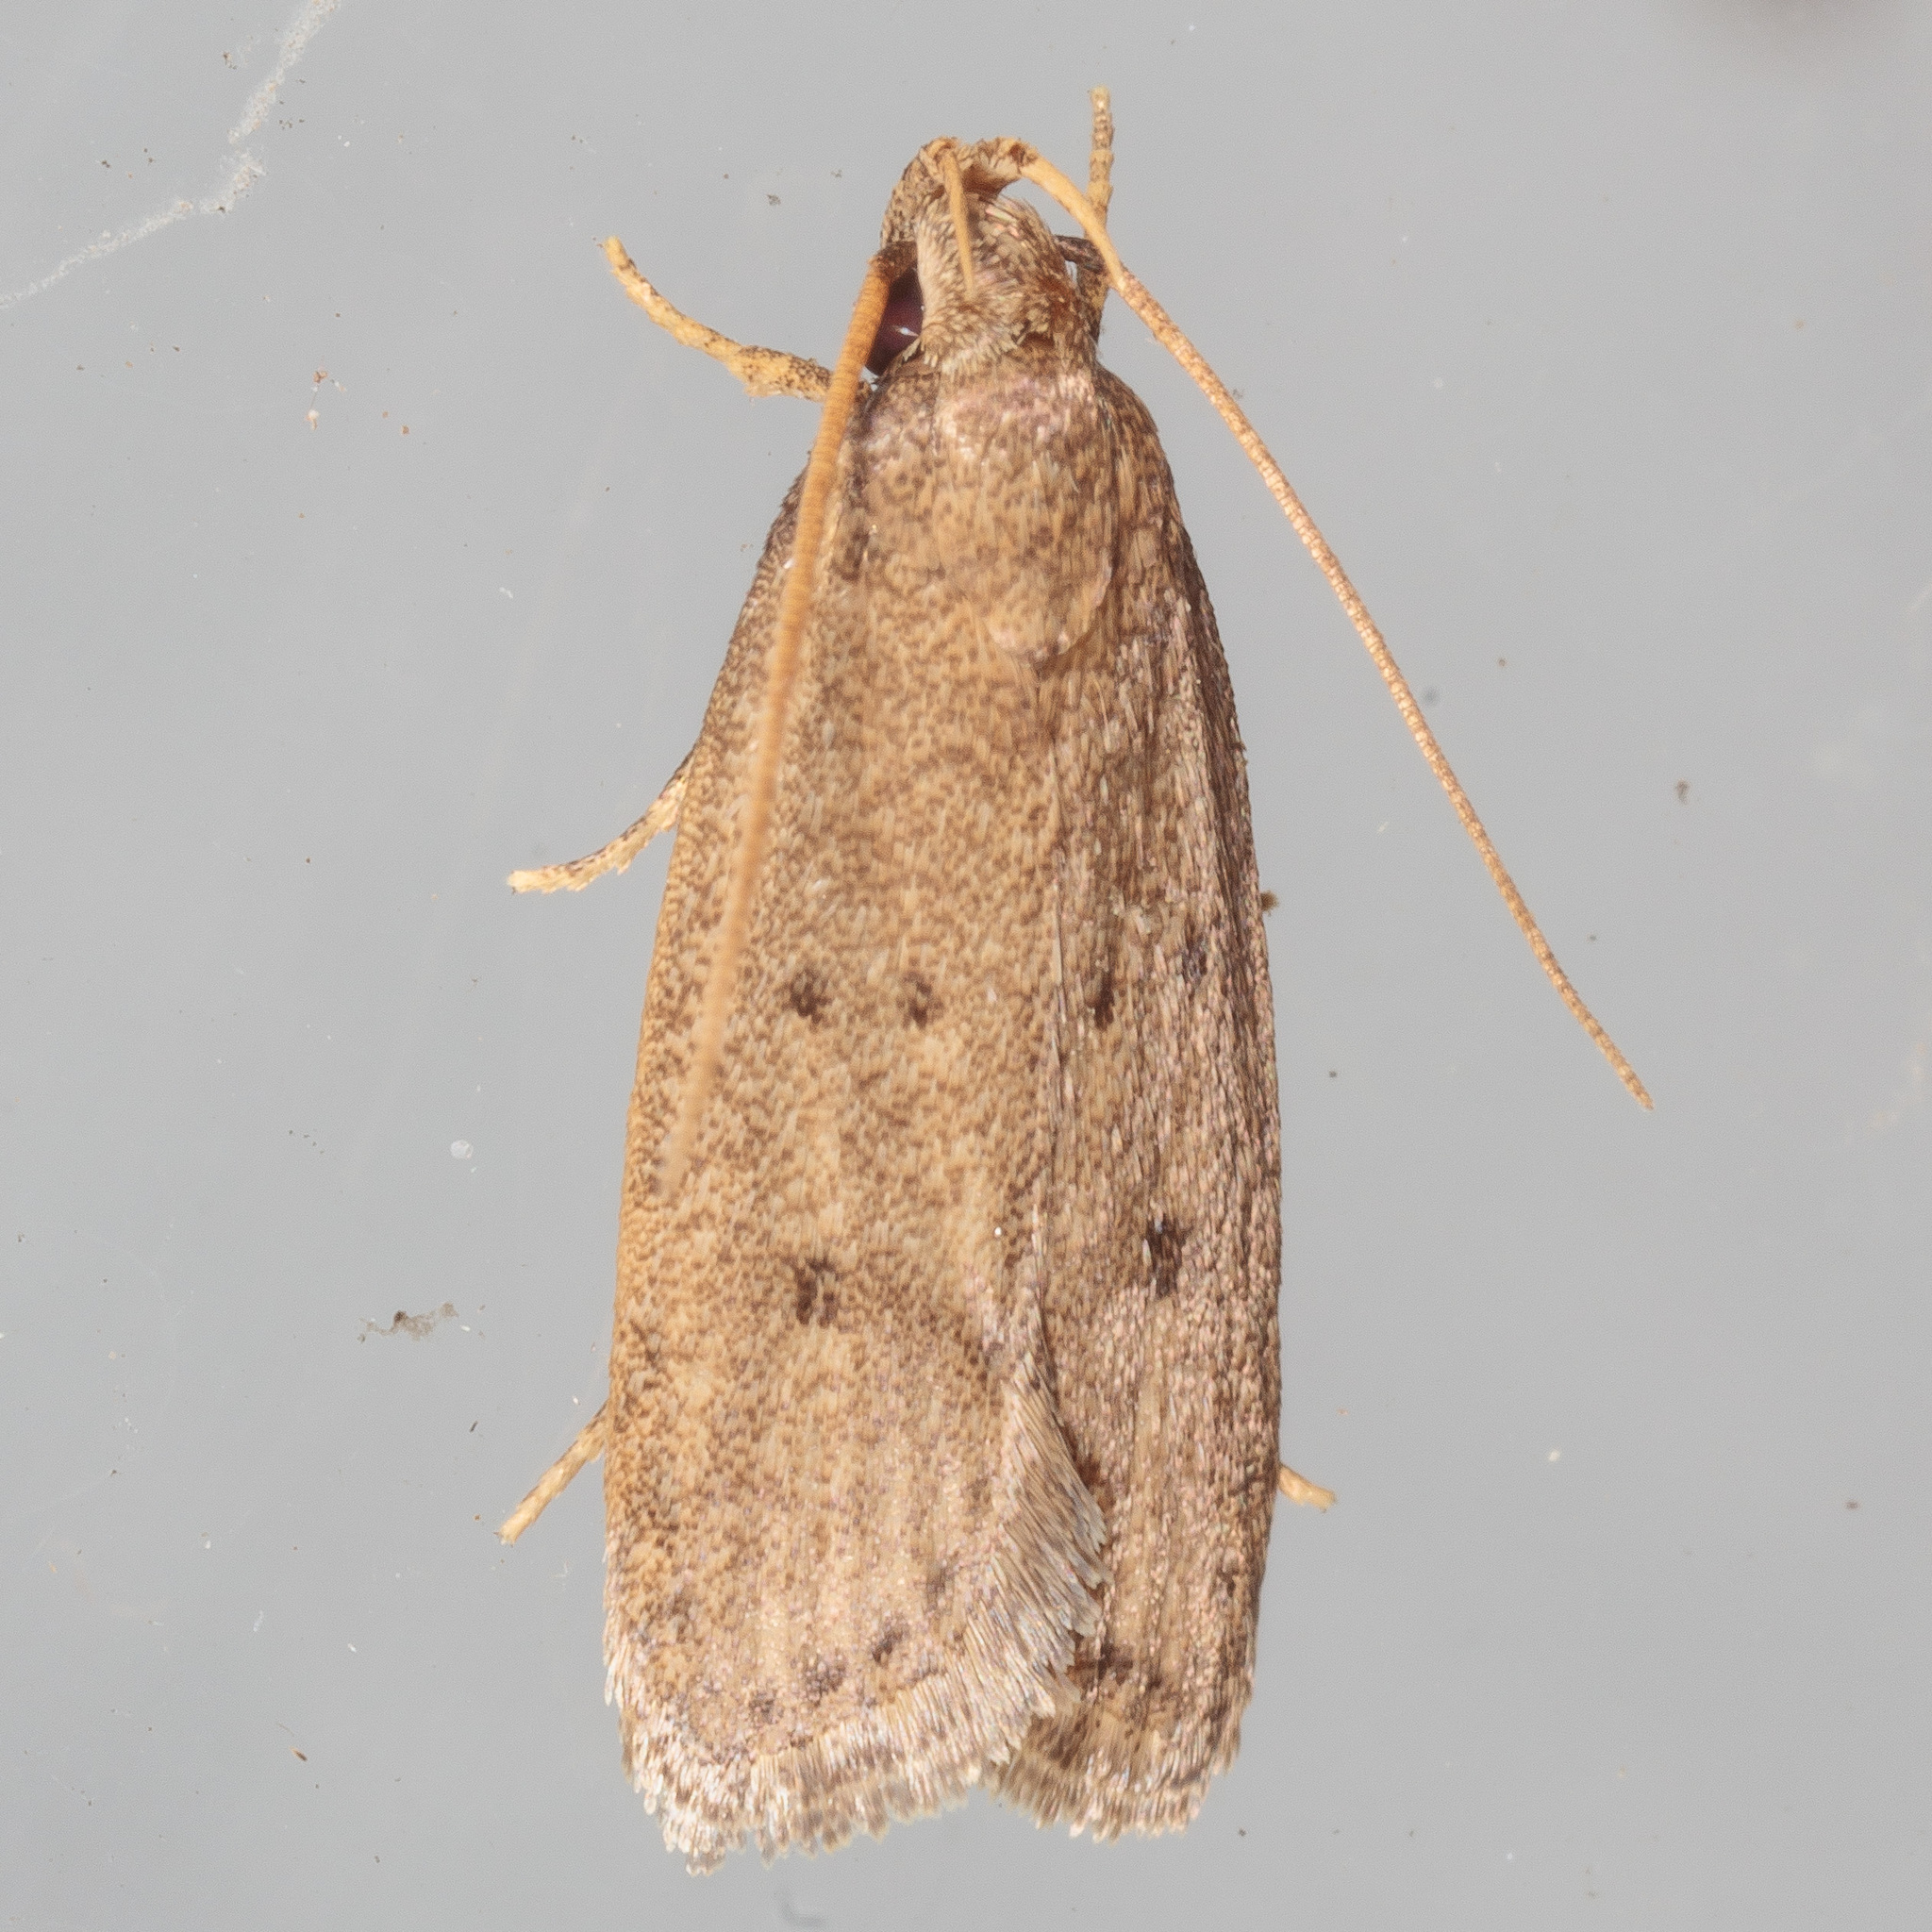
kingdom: Animalia
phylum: Arthropoda
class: Insecta
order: Lepidoptera
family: Autostichidae
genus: Autosticha
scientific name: Autosticha kyotensis
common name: Kyoto moth
